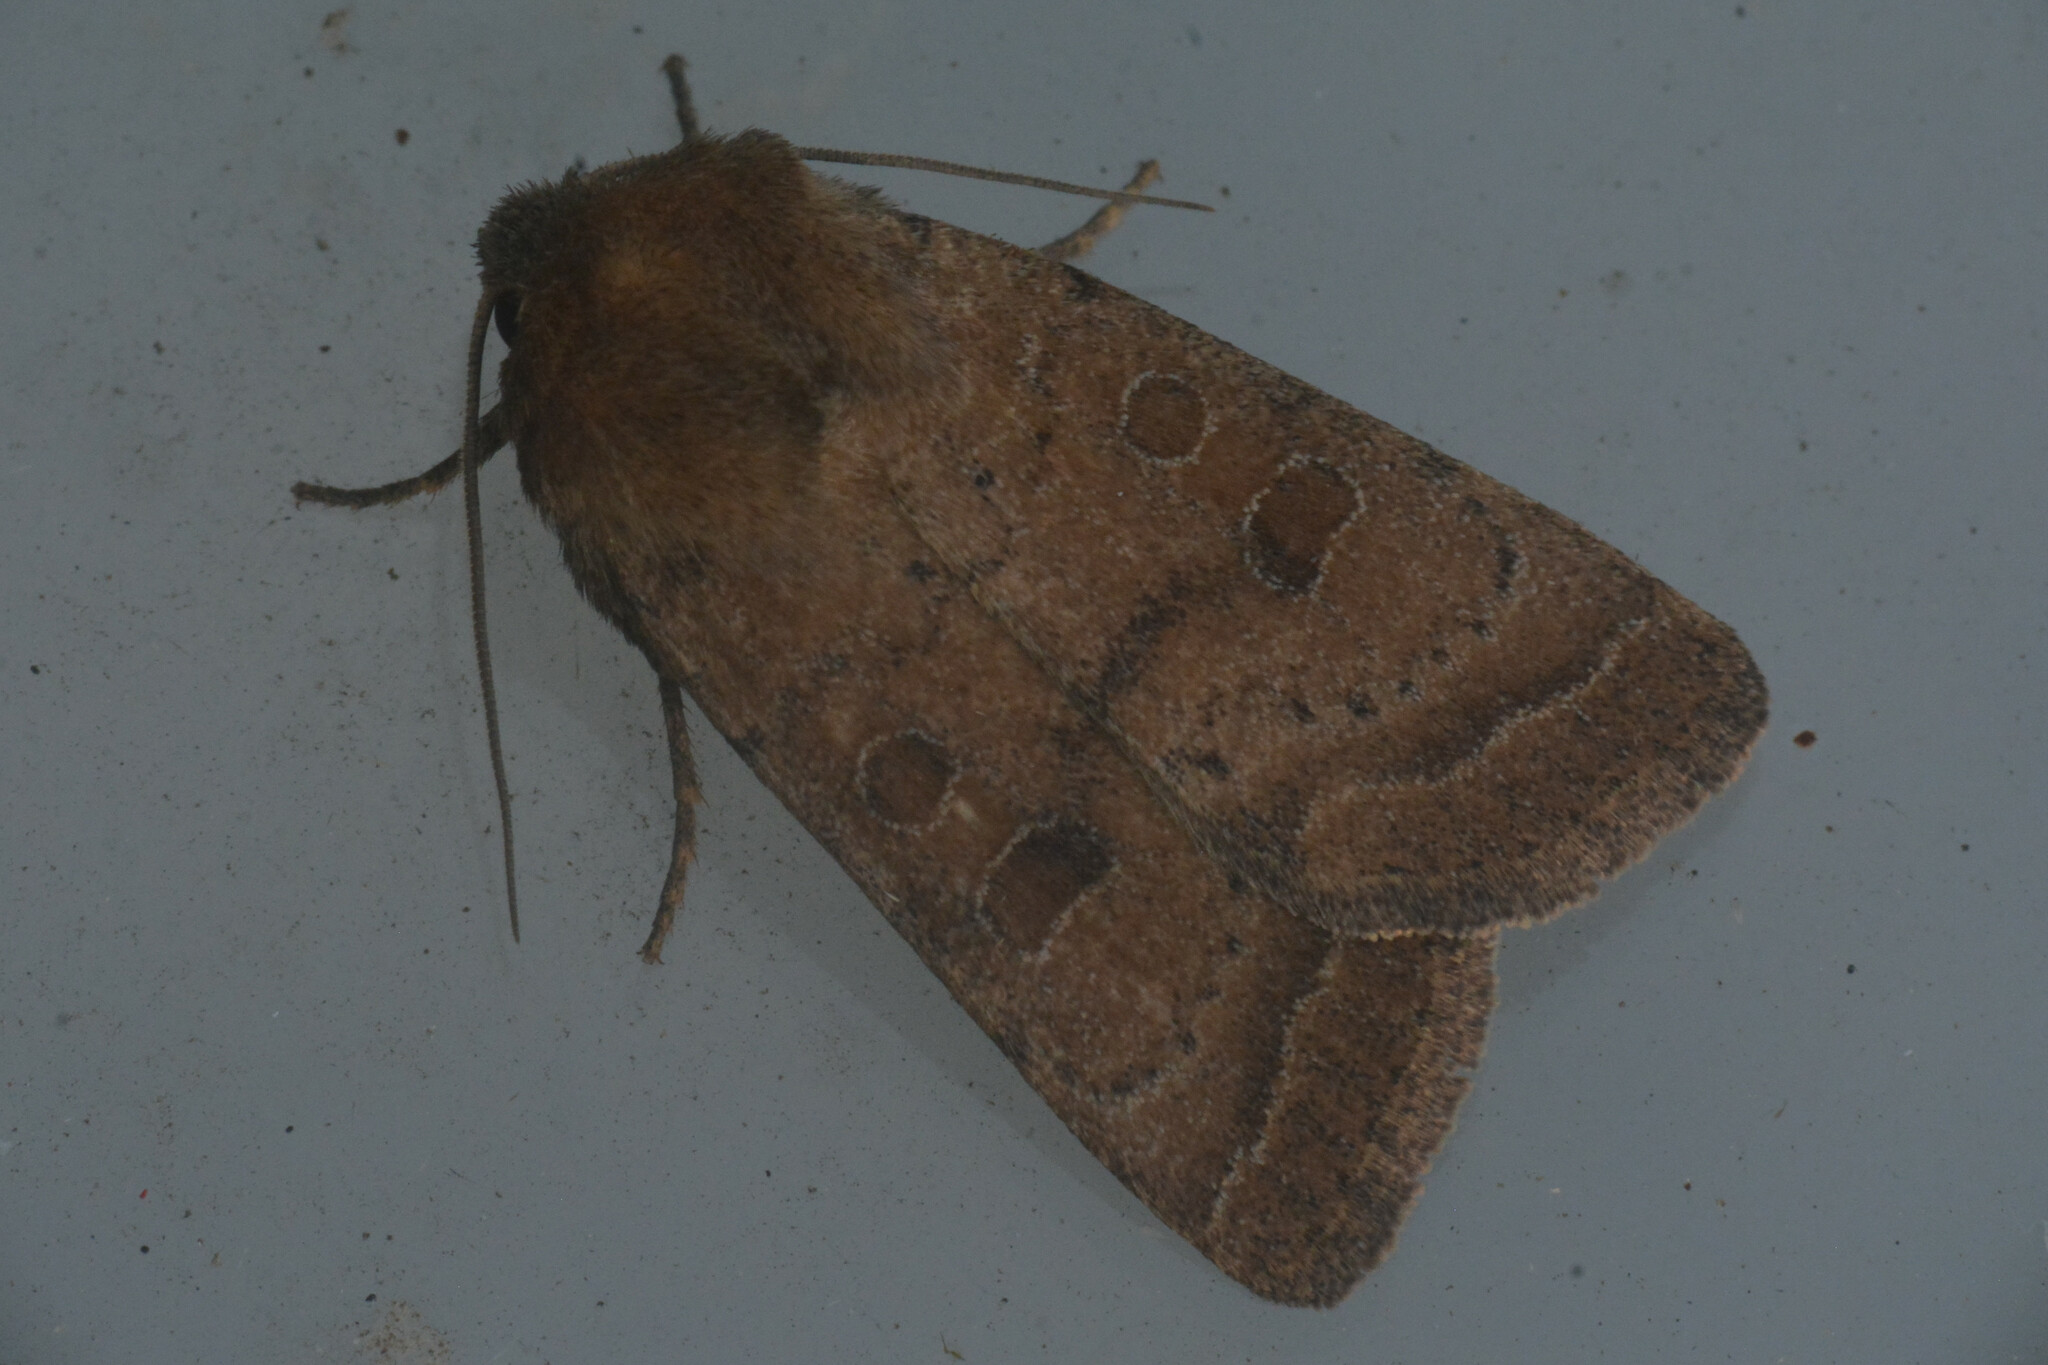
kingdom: Animalia
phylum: Arthropoda
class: Insecta
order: Lepidoptera
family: Noctuidae
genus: Hoplodrina
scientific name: Hoplodrina octogenaria
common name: Uncertain
